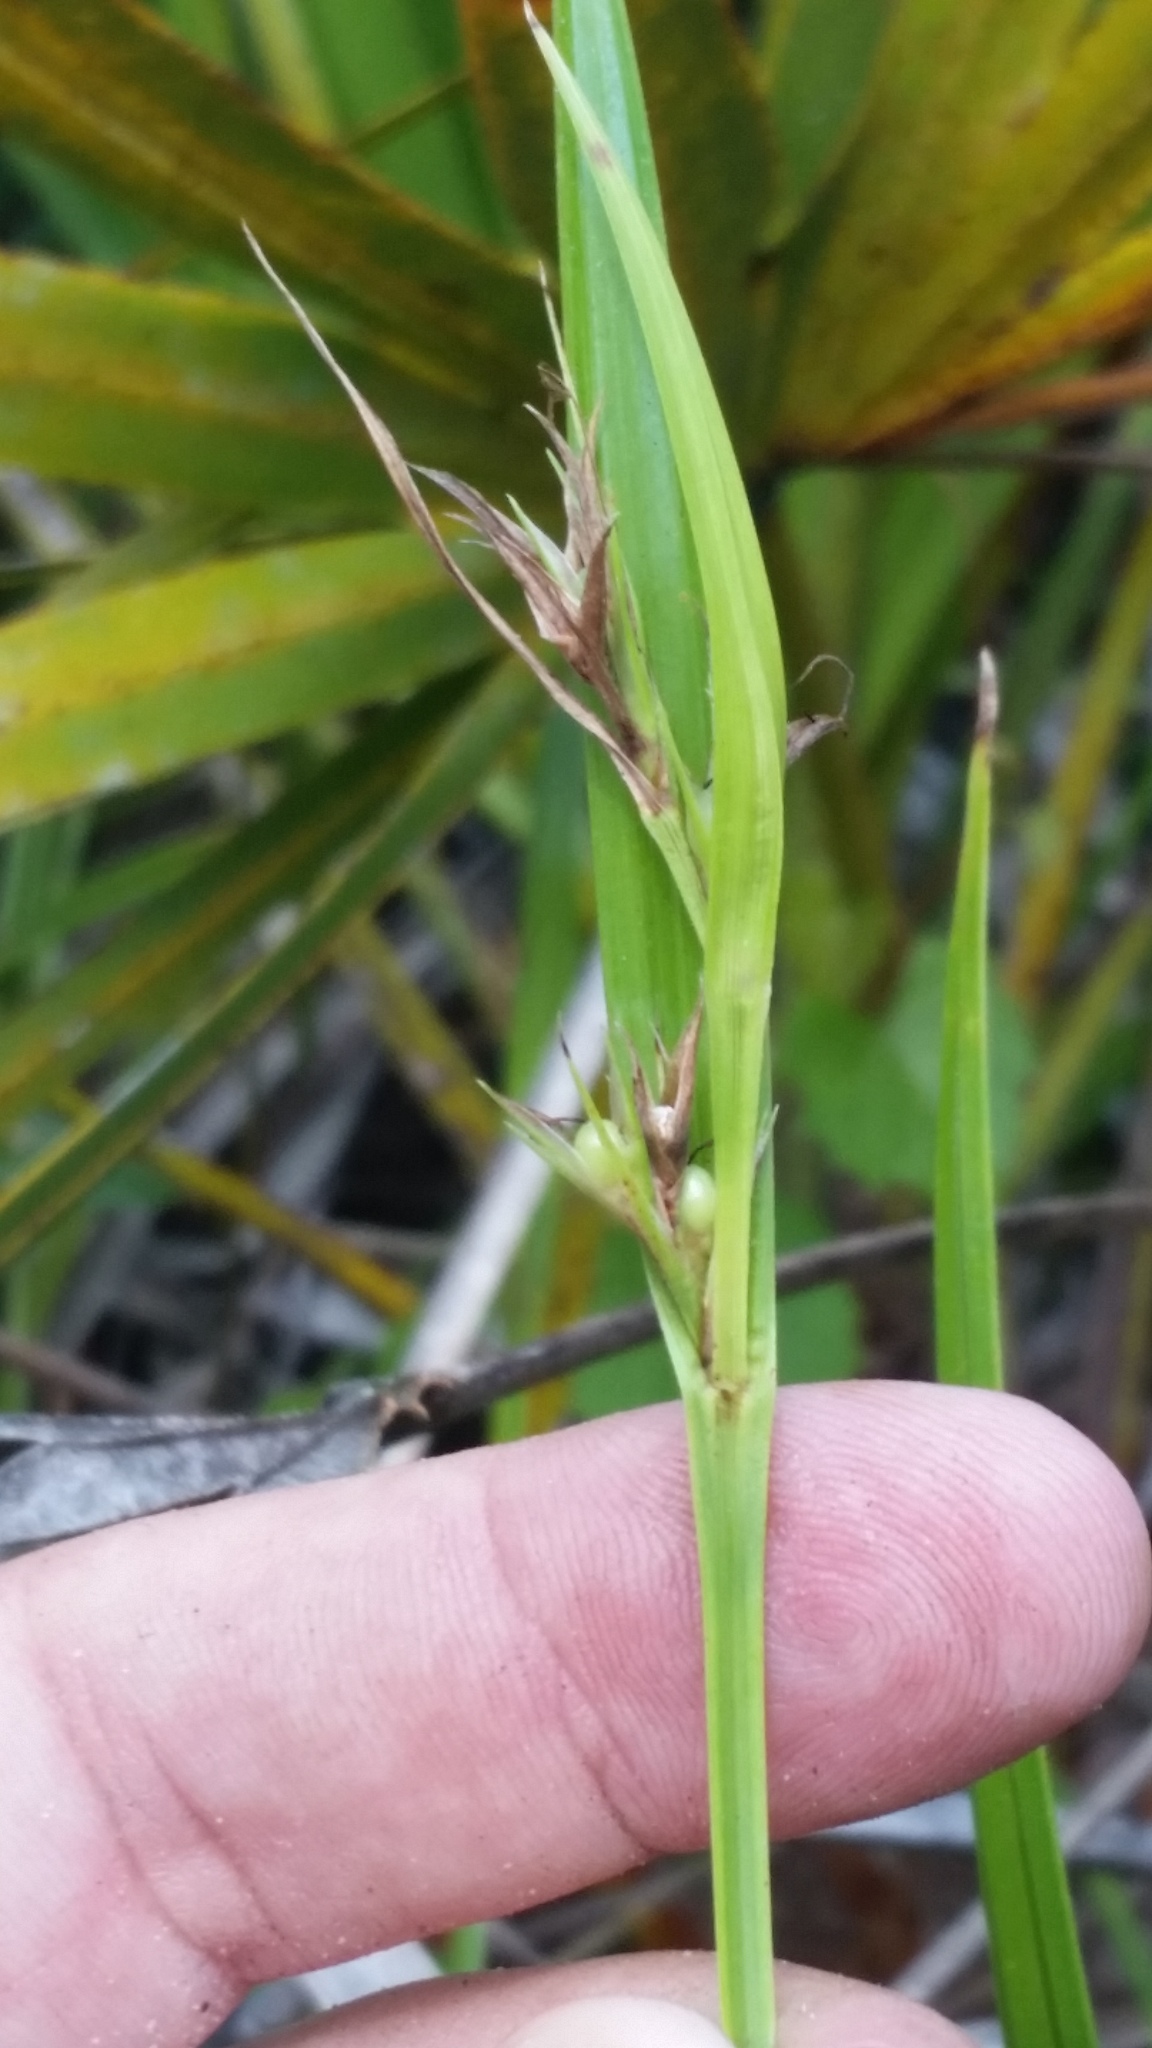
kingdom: Plantae
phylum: Tracheophyta
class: Liliopsida
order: Poales
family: Cyperaceae
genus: Scleria
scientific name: Scleria triglomerata
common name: Whip nutrush
